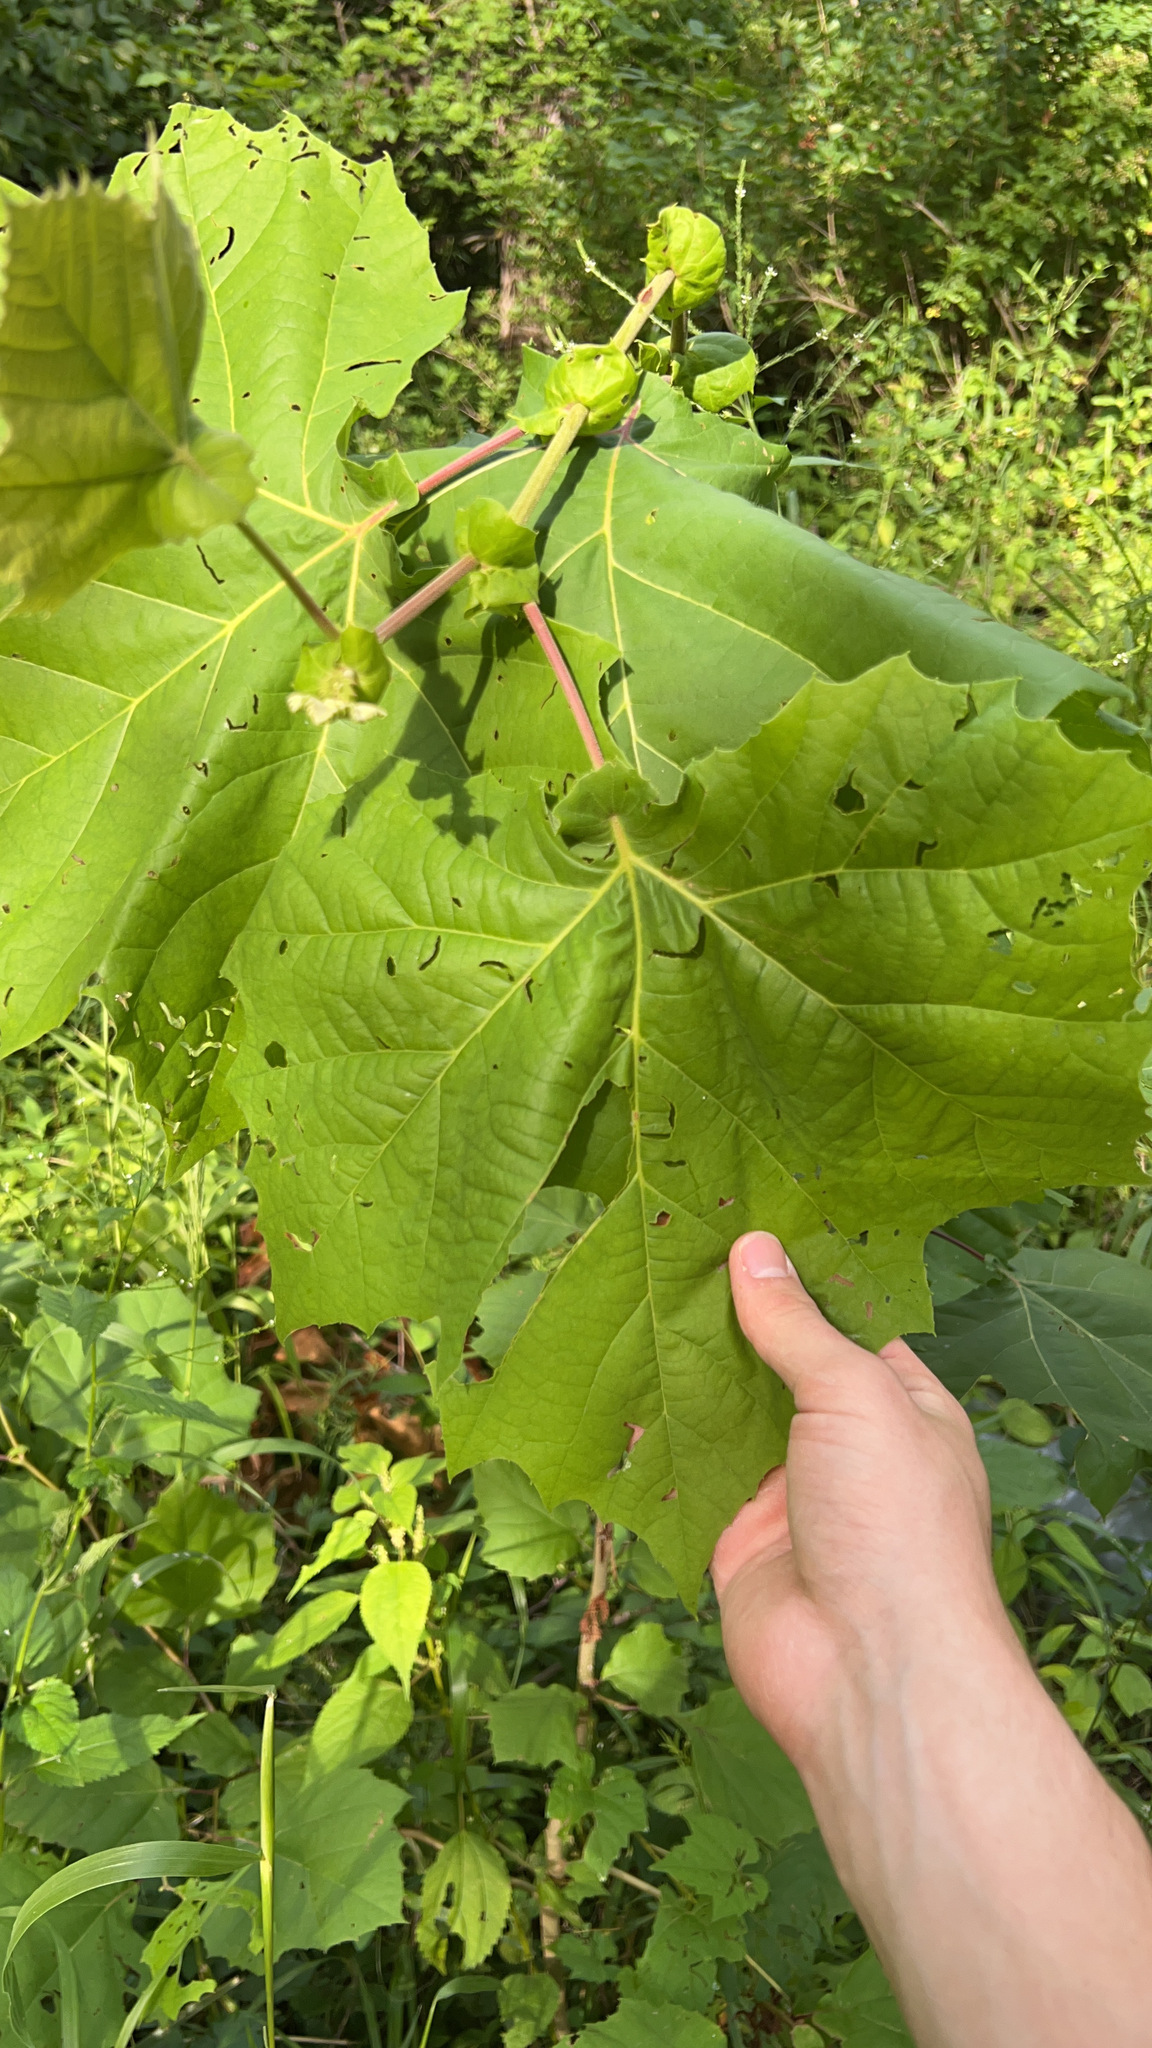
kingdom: Plantae
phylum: Tracheophyta
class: Magnoliopsida
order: Proteales
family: Platanaceae
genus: Platanus
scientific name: Platanus occidentalis
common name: American sycamore
